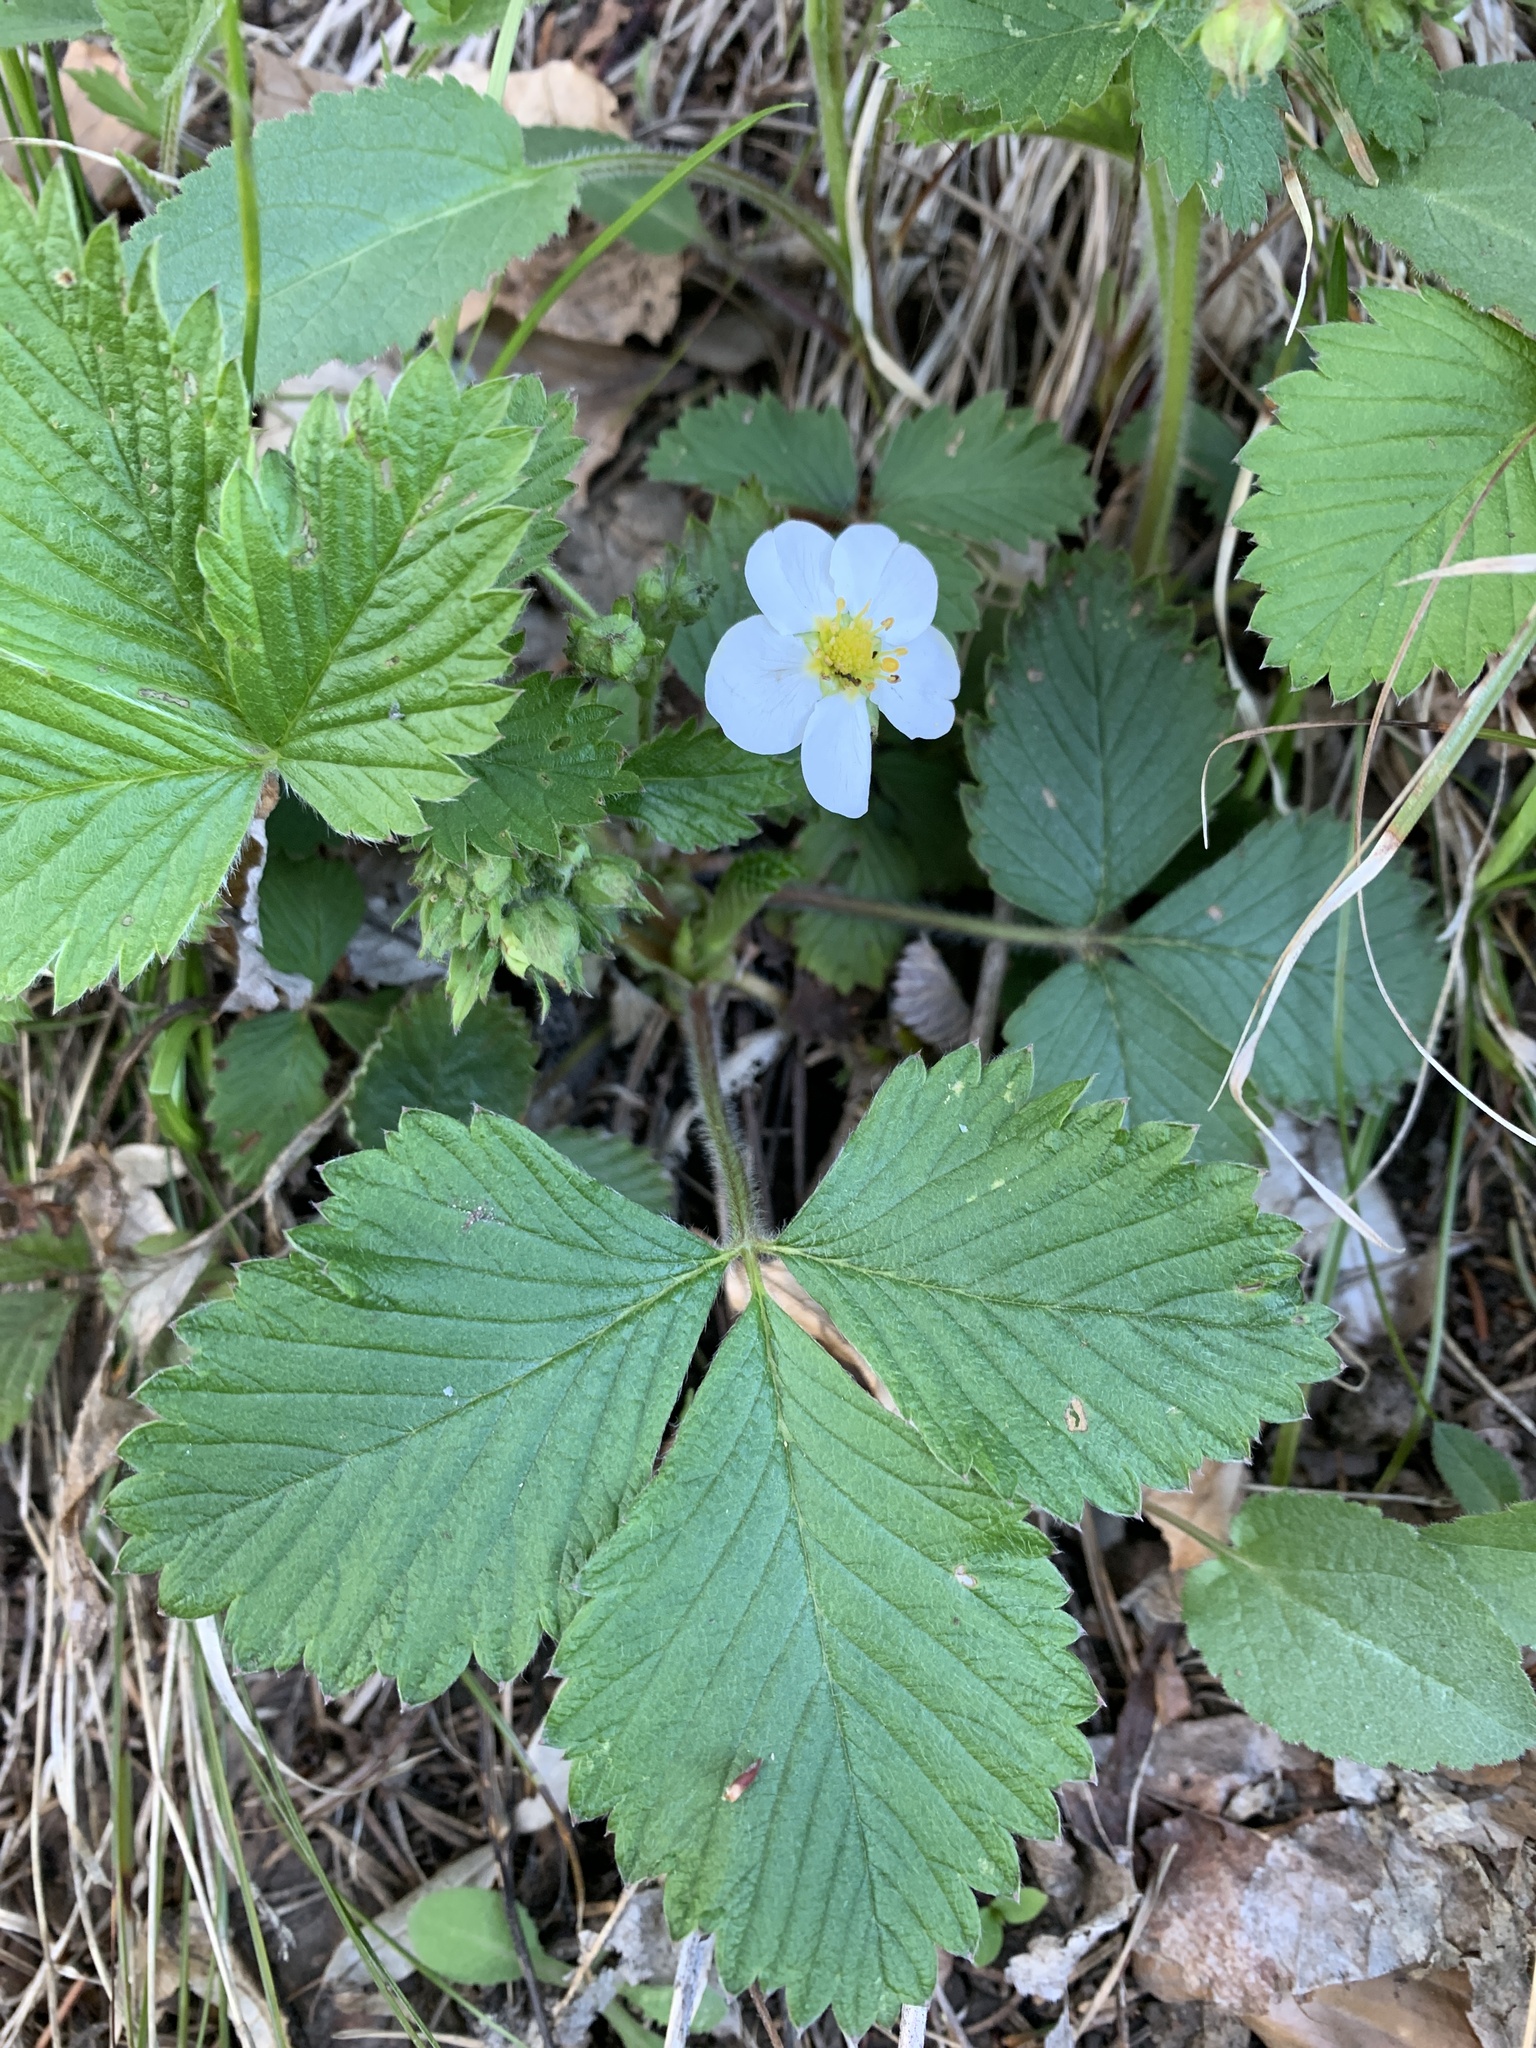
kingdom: Plantae
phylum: Tracheophyta
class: Magnoliopsida
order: Rosales
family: Rosaceae
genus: Fragaria
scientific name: Fragaria vesca
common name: Wild strawberry
